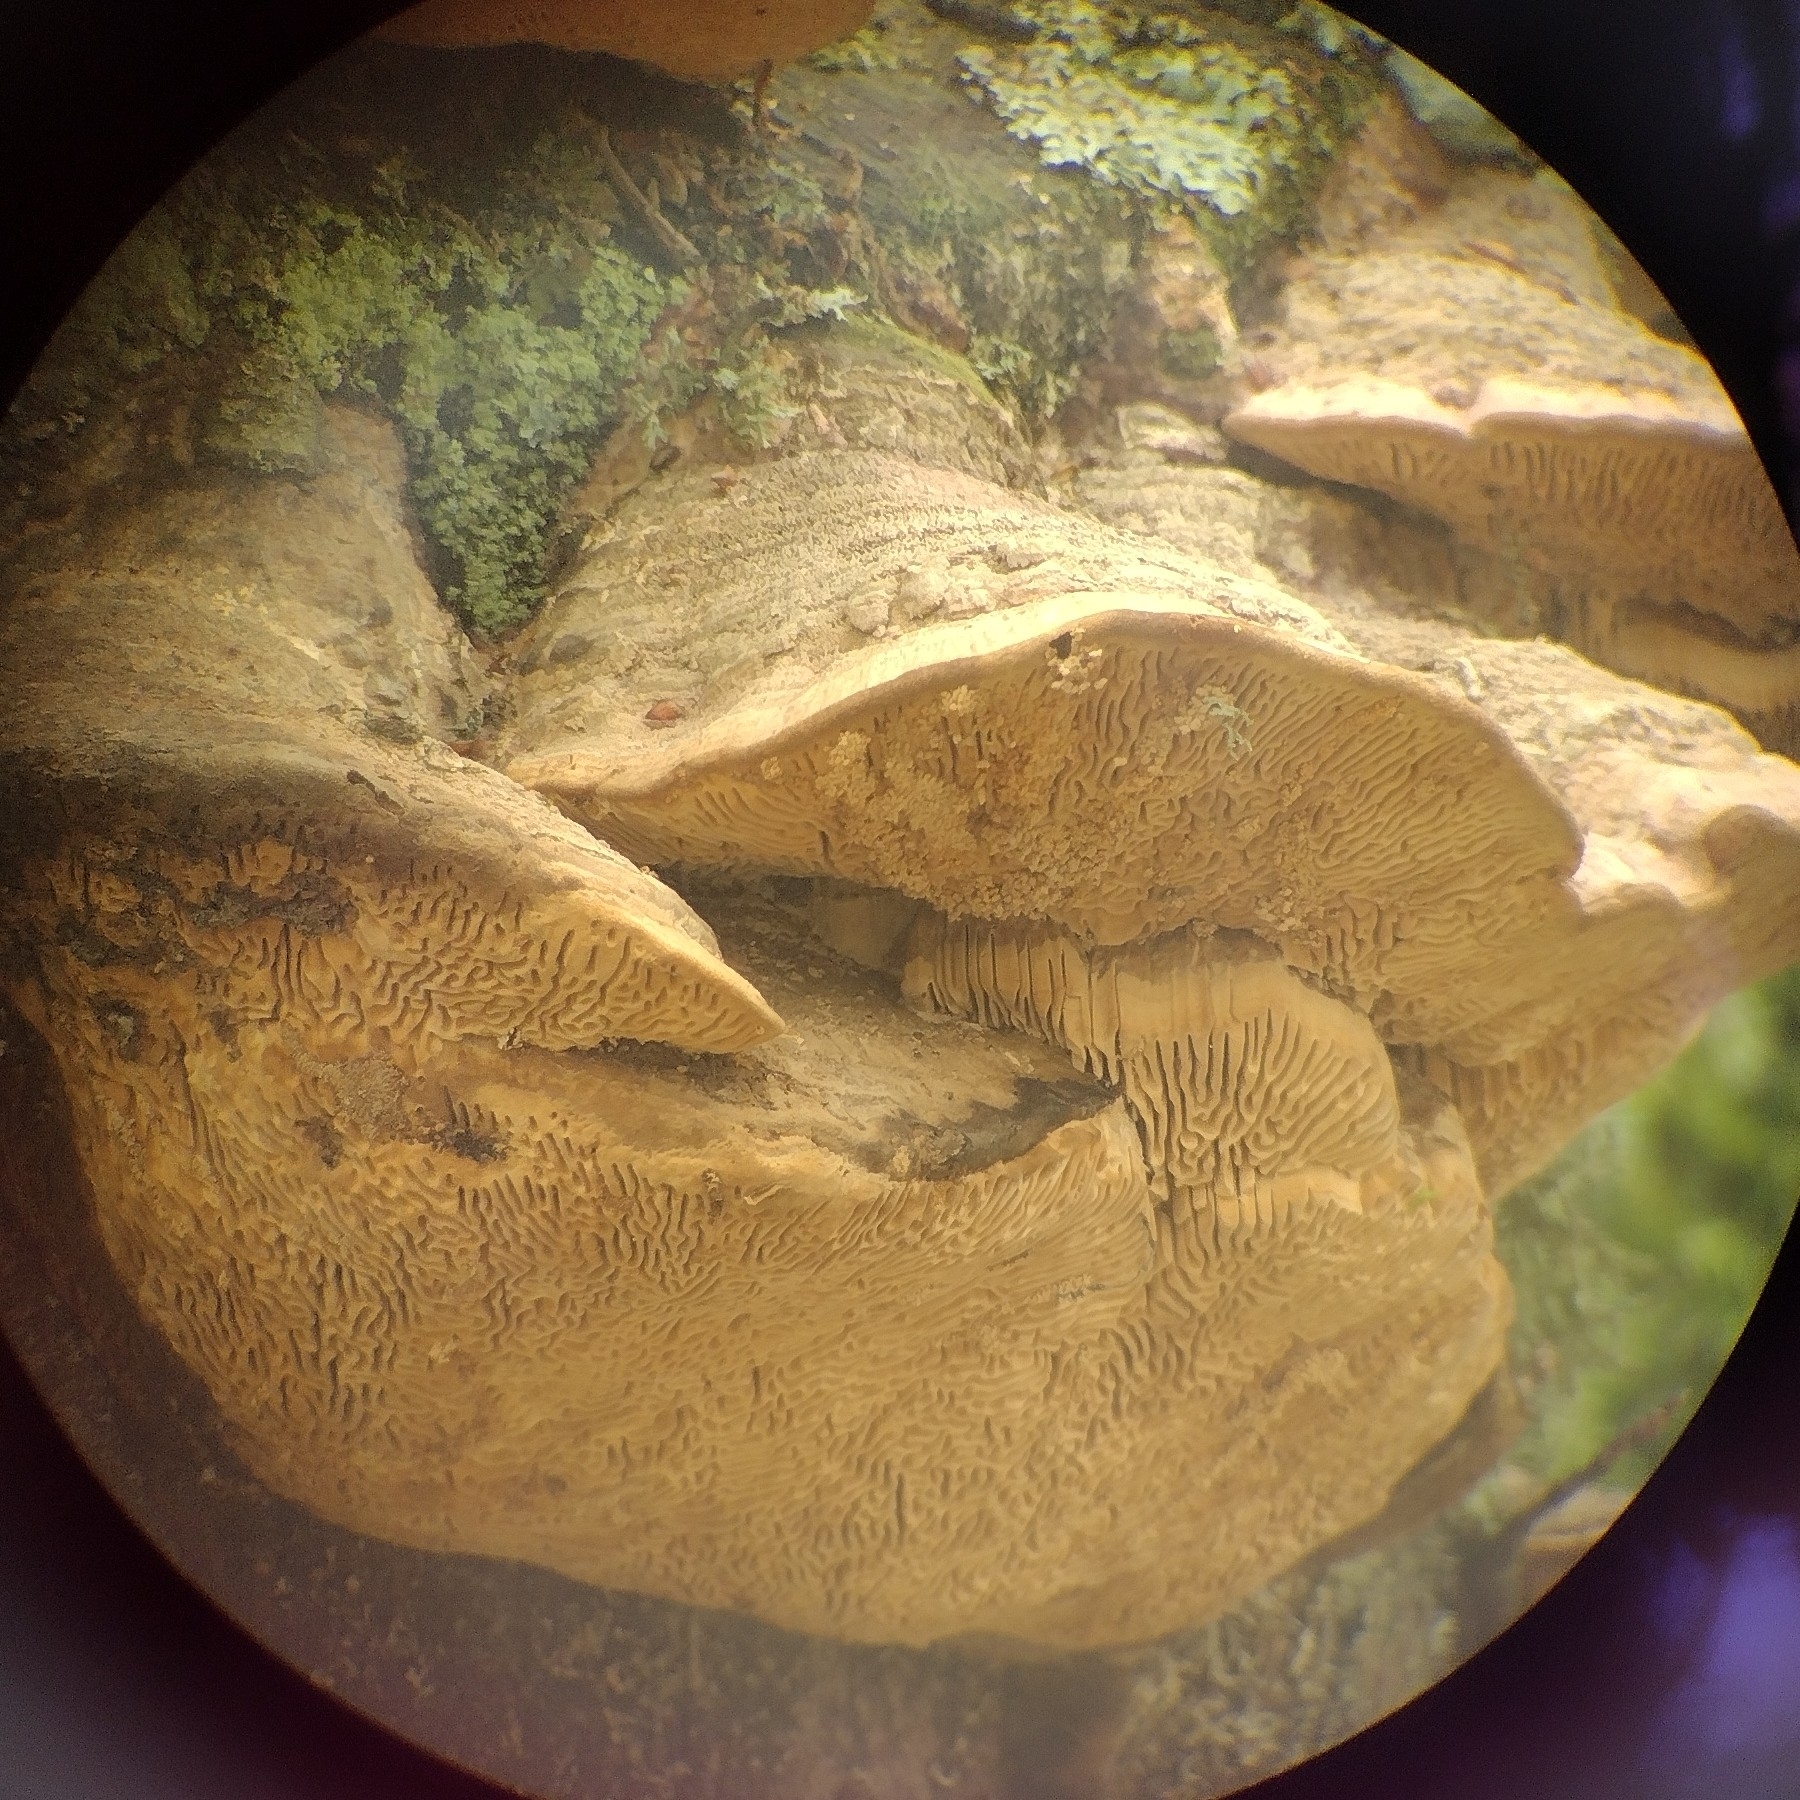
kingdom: Fungi
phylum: Basidiomycota
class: Agaricomycetes
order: Polyporales
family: Fomitopsidaceae
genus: Fomitopsis
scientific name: Fomitopsis
